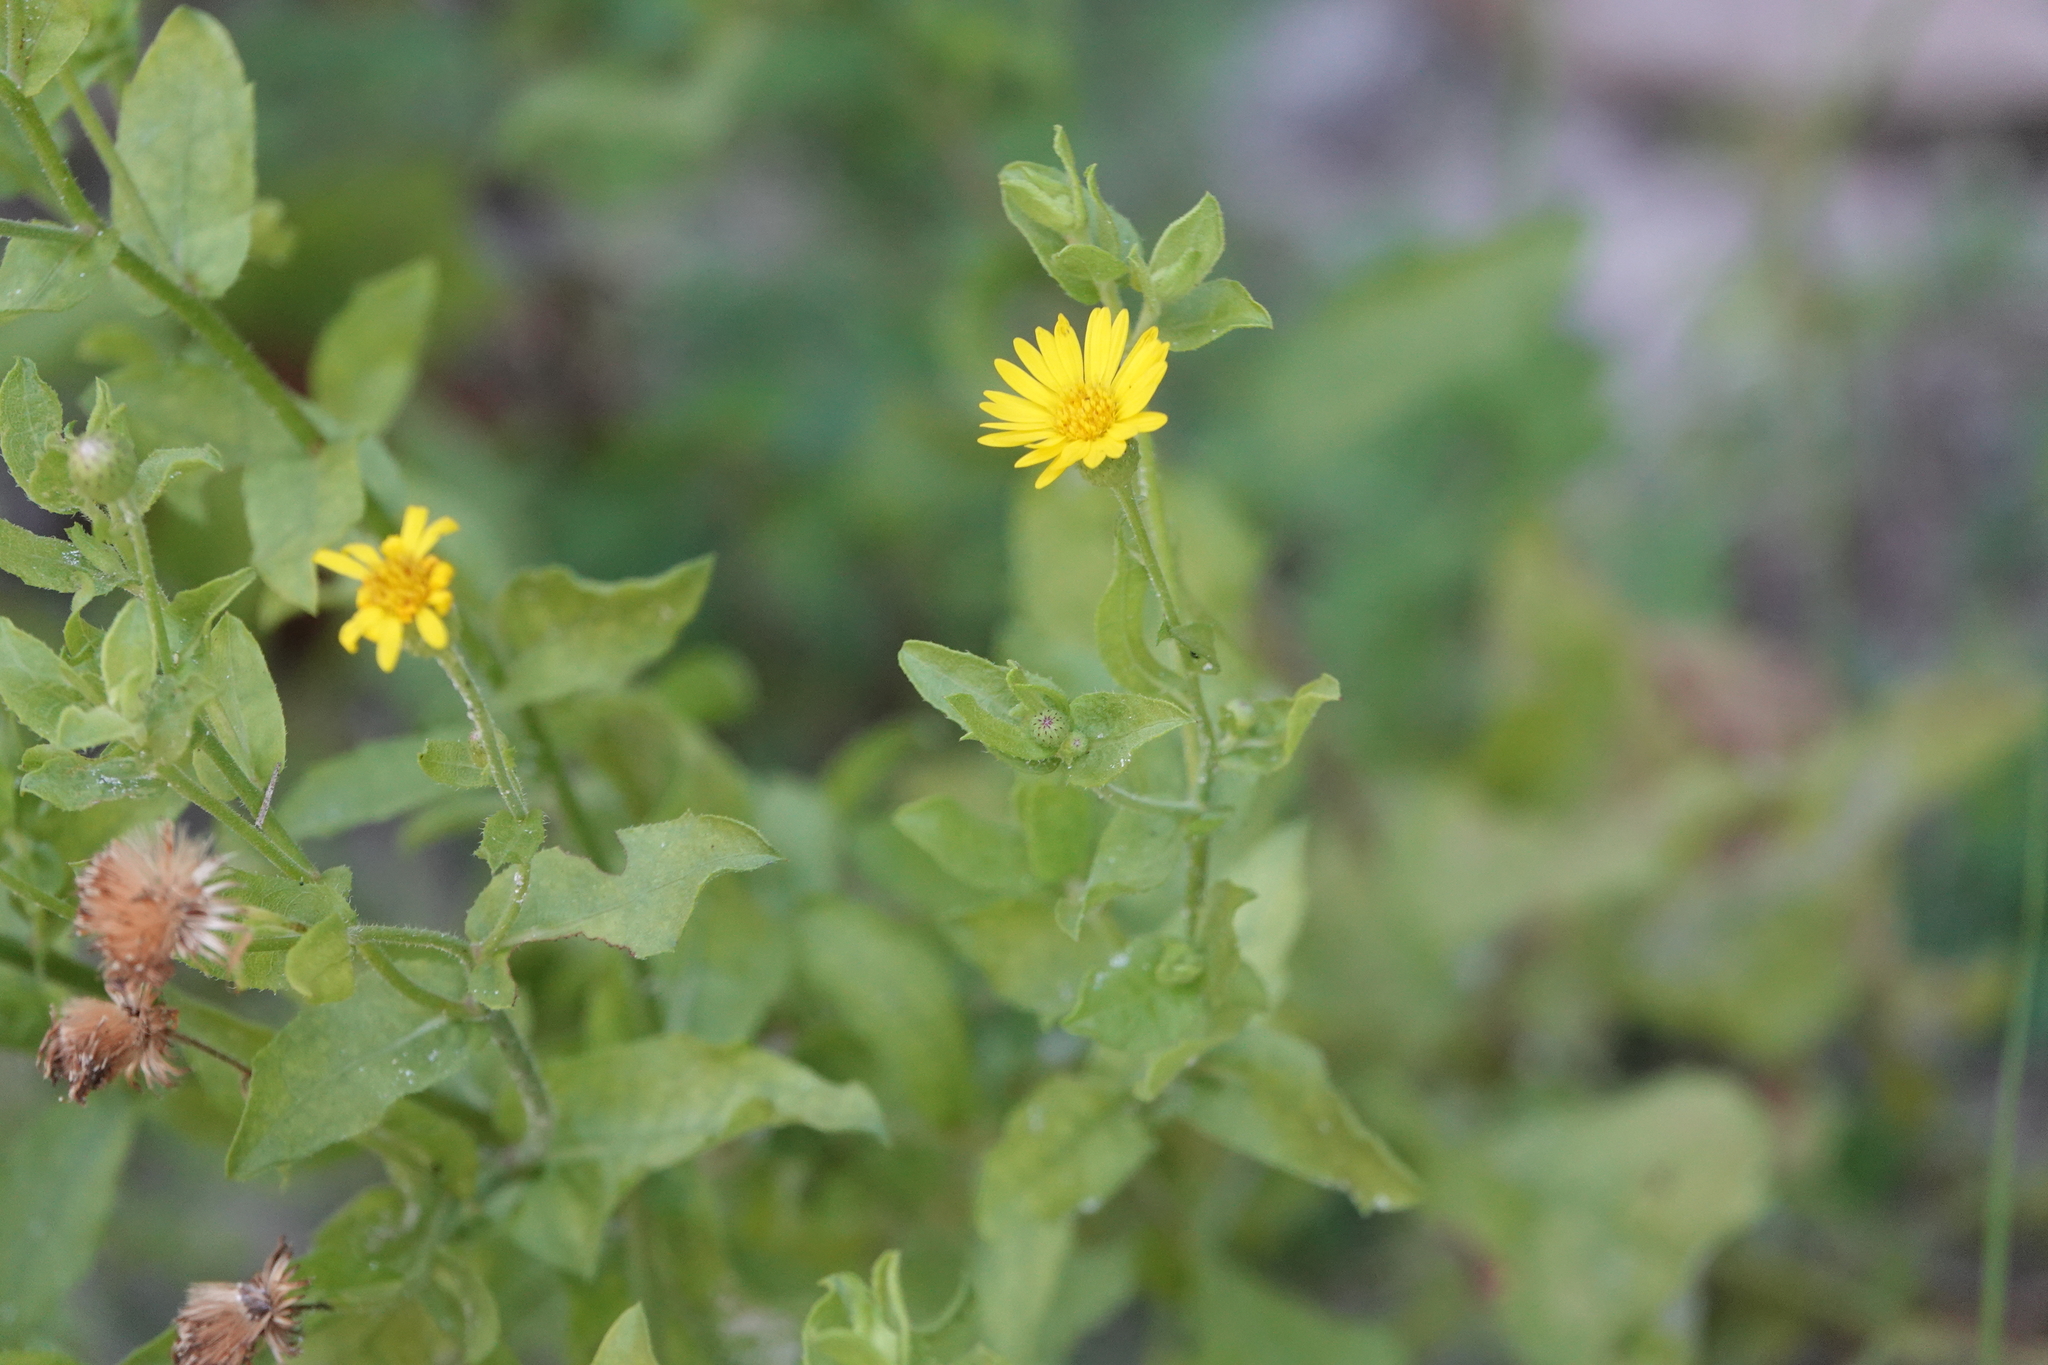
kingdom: Plantae
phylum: Tracheophyta
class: Magnoliopsida
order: Asterales
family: Asteraceae
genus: Heterotheca
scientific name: Heterotheca subaxillaris
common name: Camphorweed
